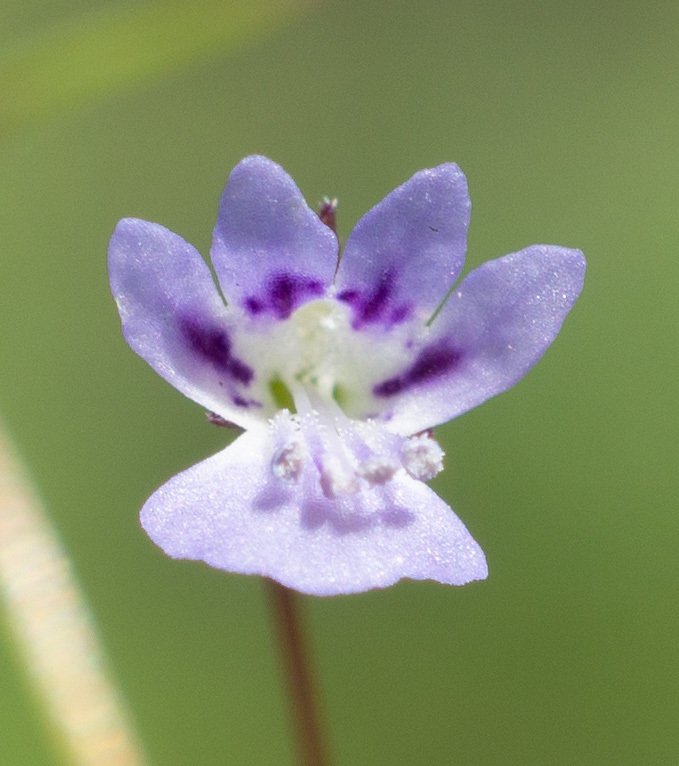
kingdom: Plantae
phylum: Tracheophyta
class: Magnoliopsida
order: Lamiales
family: Plantaginaceae
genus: Tonella
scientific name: Tonella tenella
